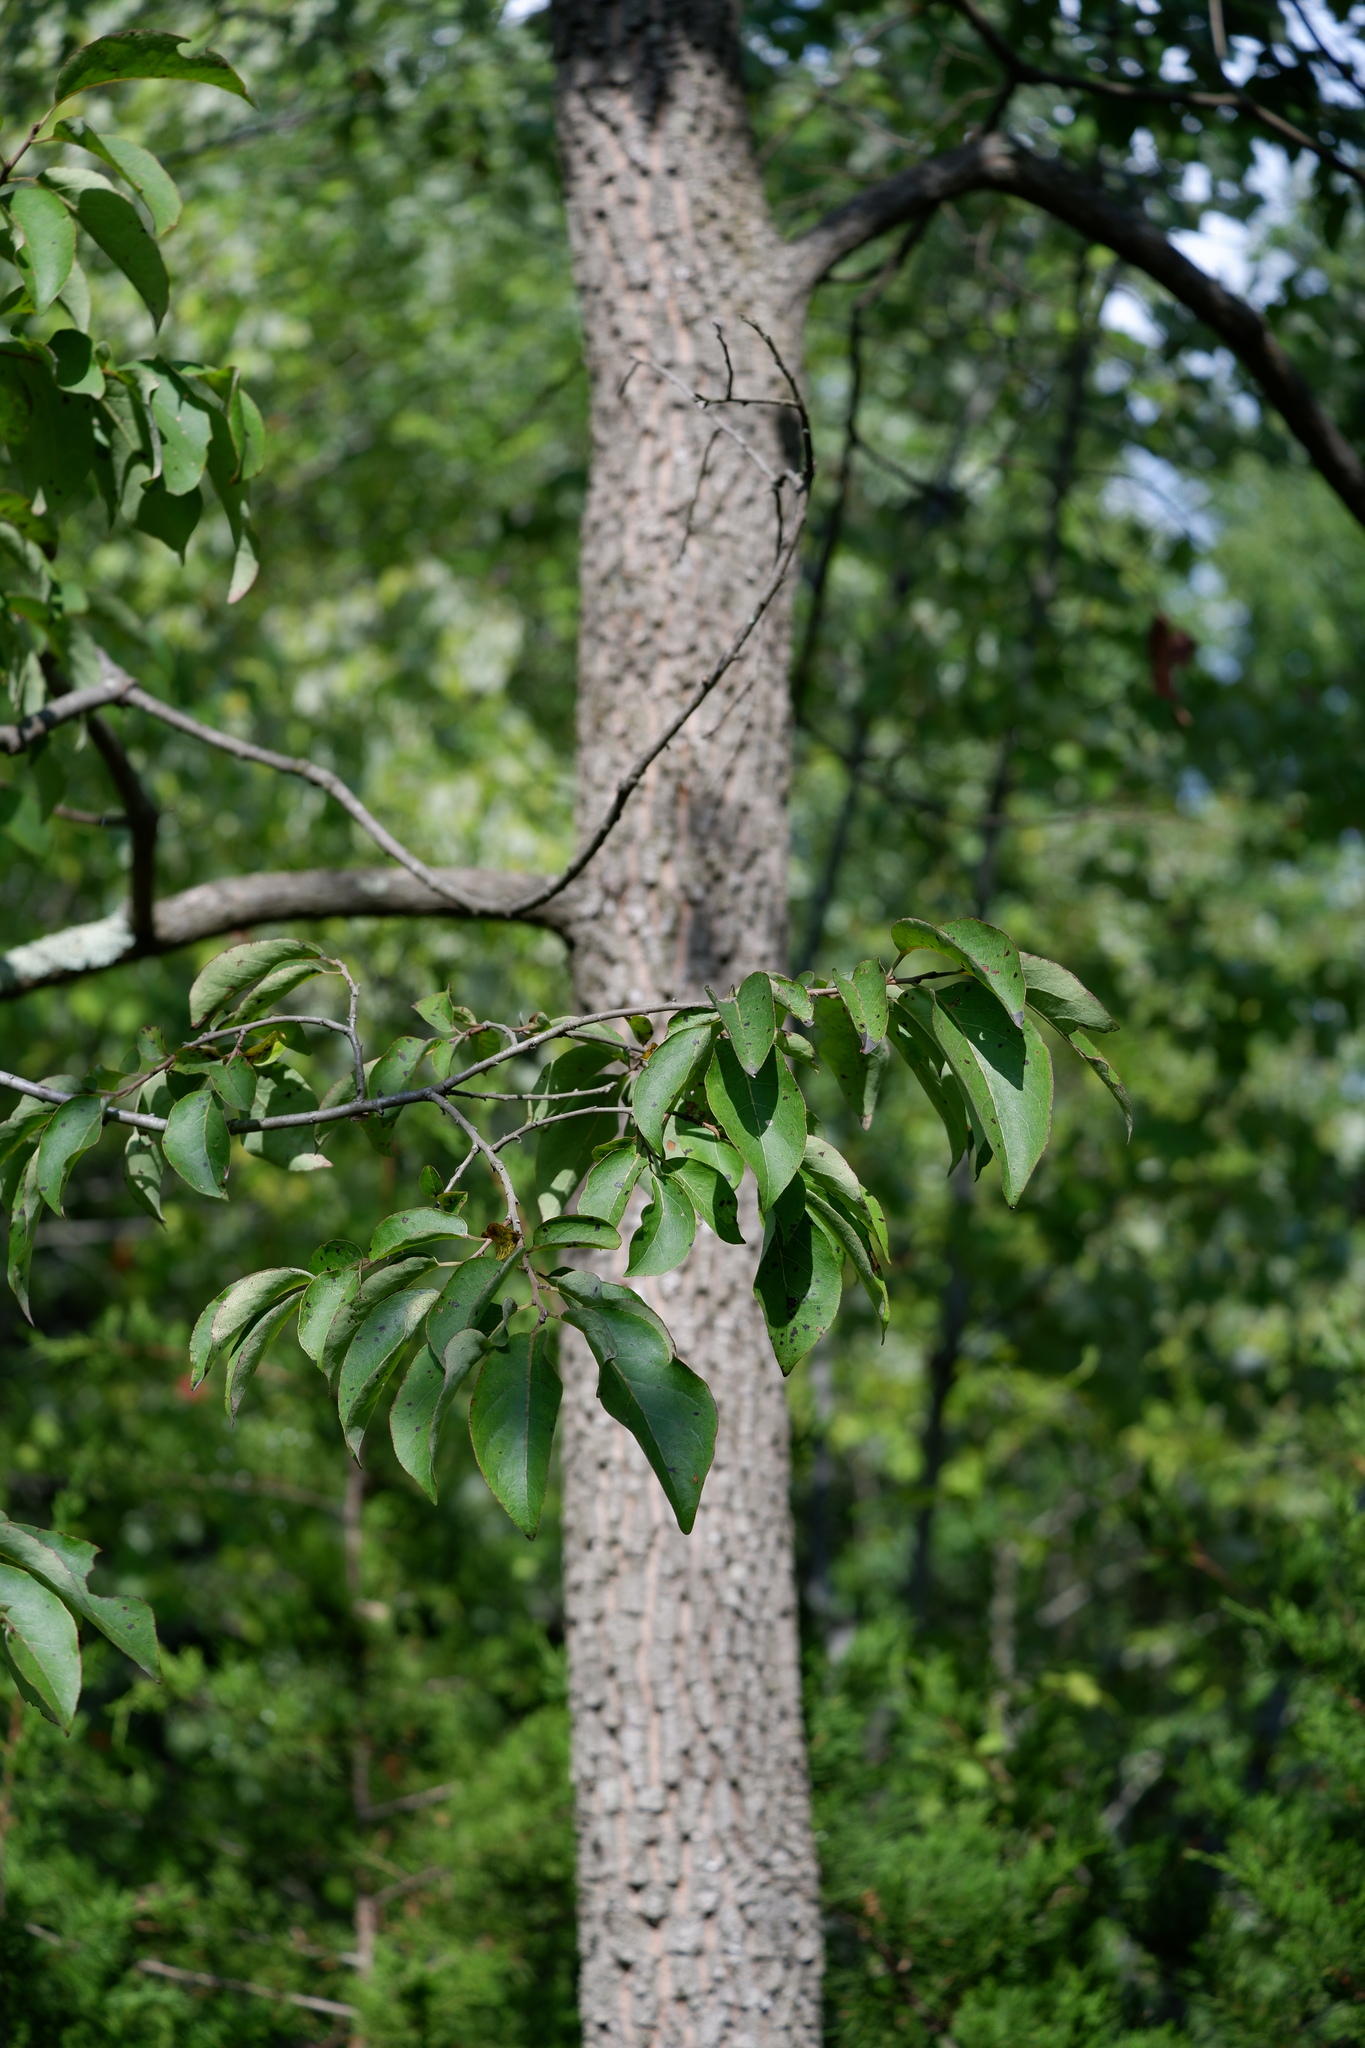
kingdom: Plantae
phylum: Tracheophyta
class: Magnoliopsida
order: Ericales
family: Ebenaceae
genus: Diospyros
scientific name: Diospyros virginiana
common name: Persimmon
